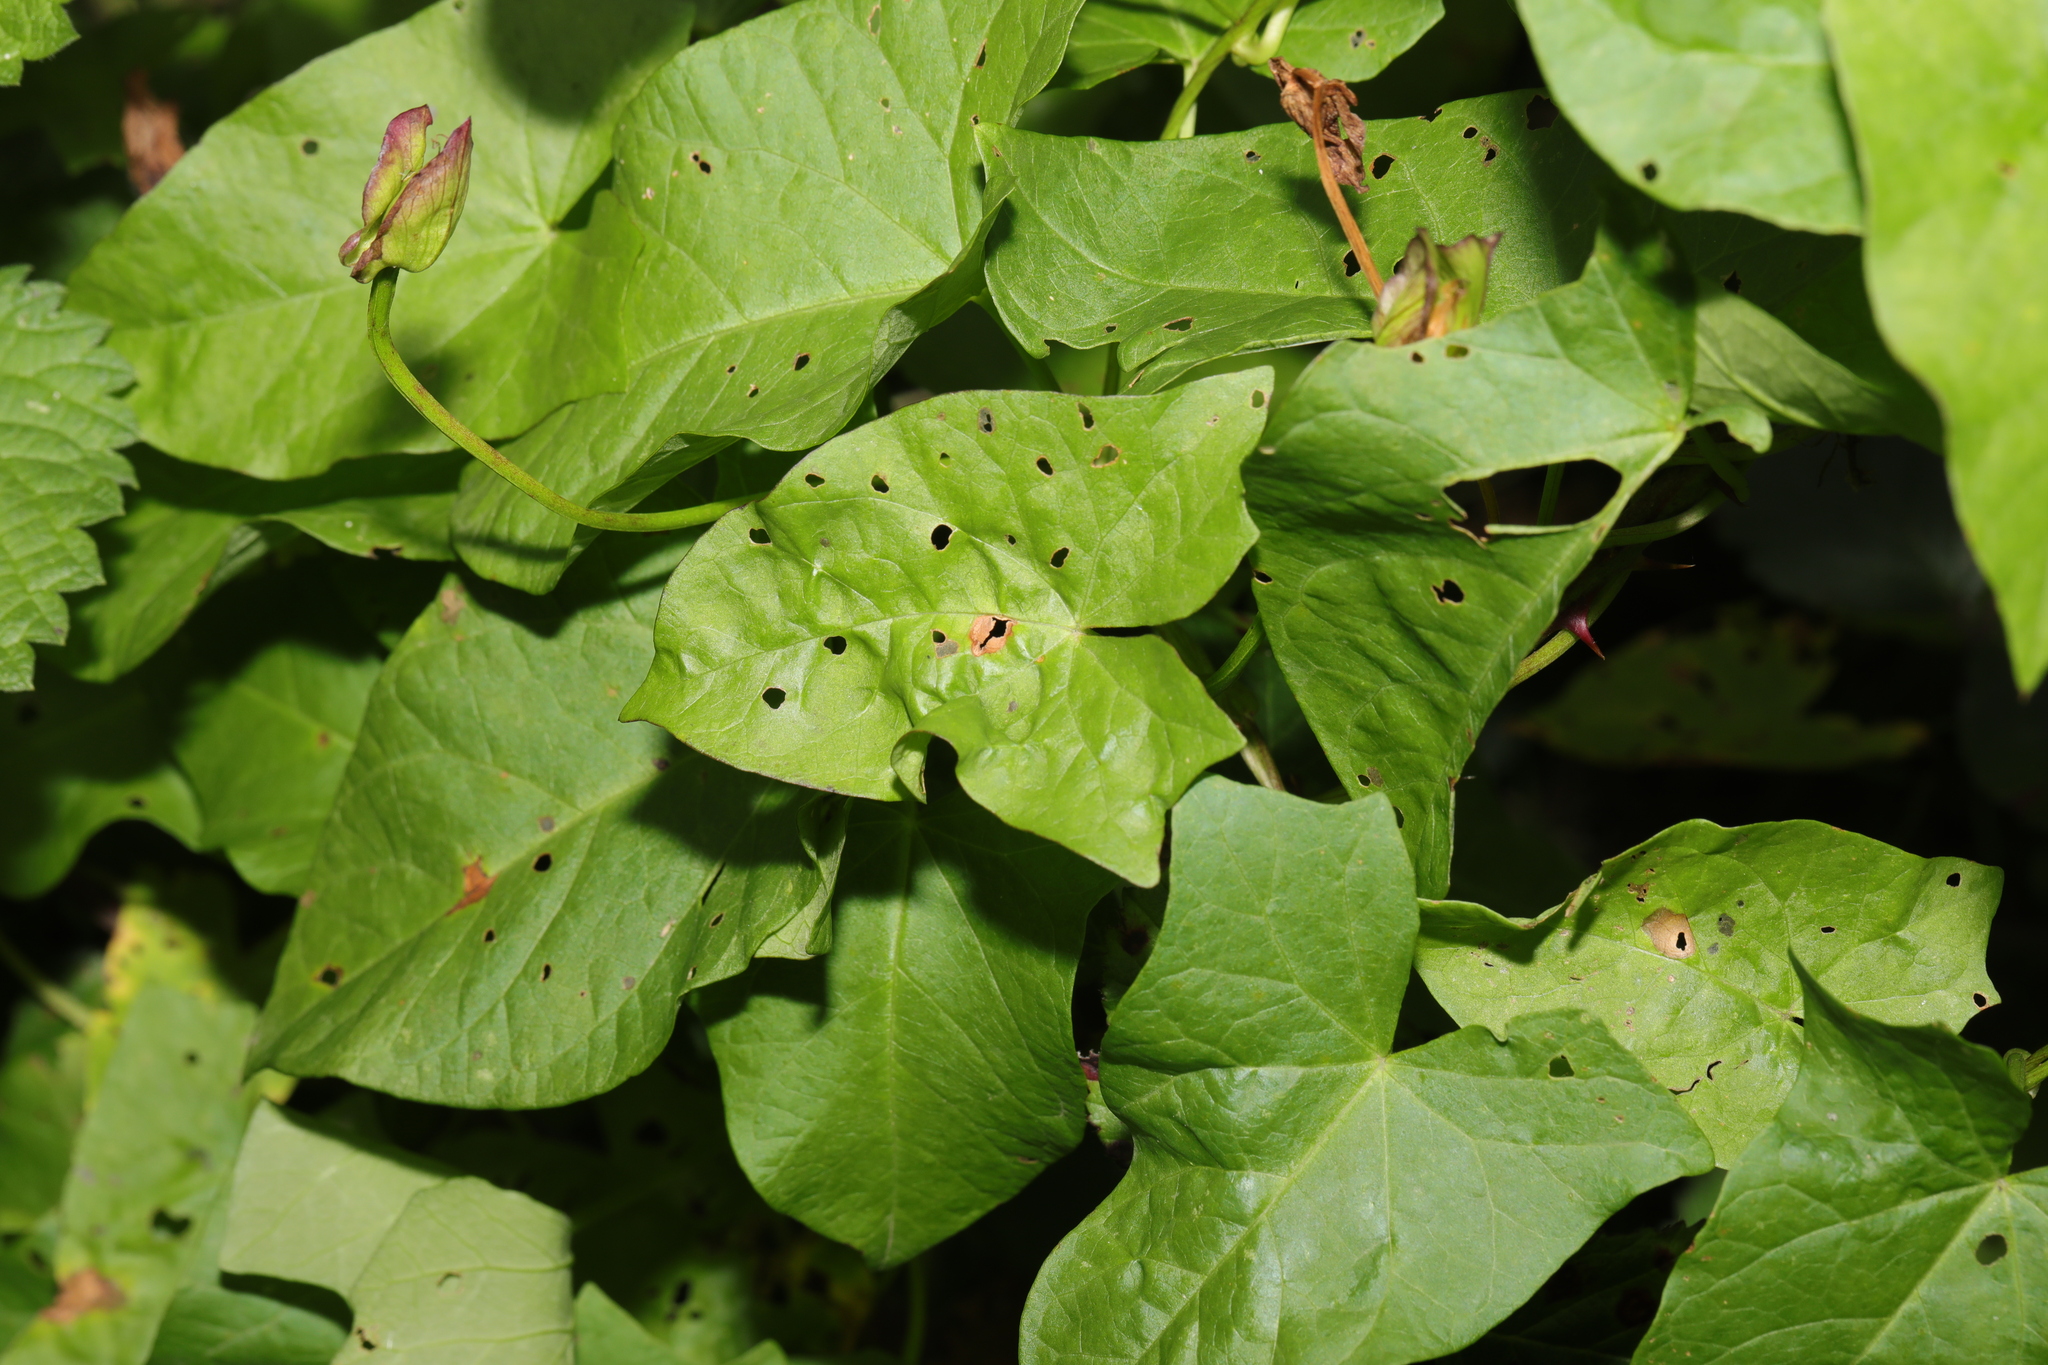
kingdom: Plantae
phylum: Tracheophyta
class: Magnoliopsida
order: Solanales
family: Convolvulaceae
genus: Calystegia
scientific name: Calystegia sepium
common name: Hedge bindweed
